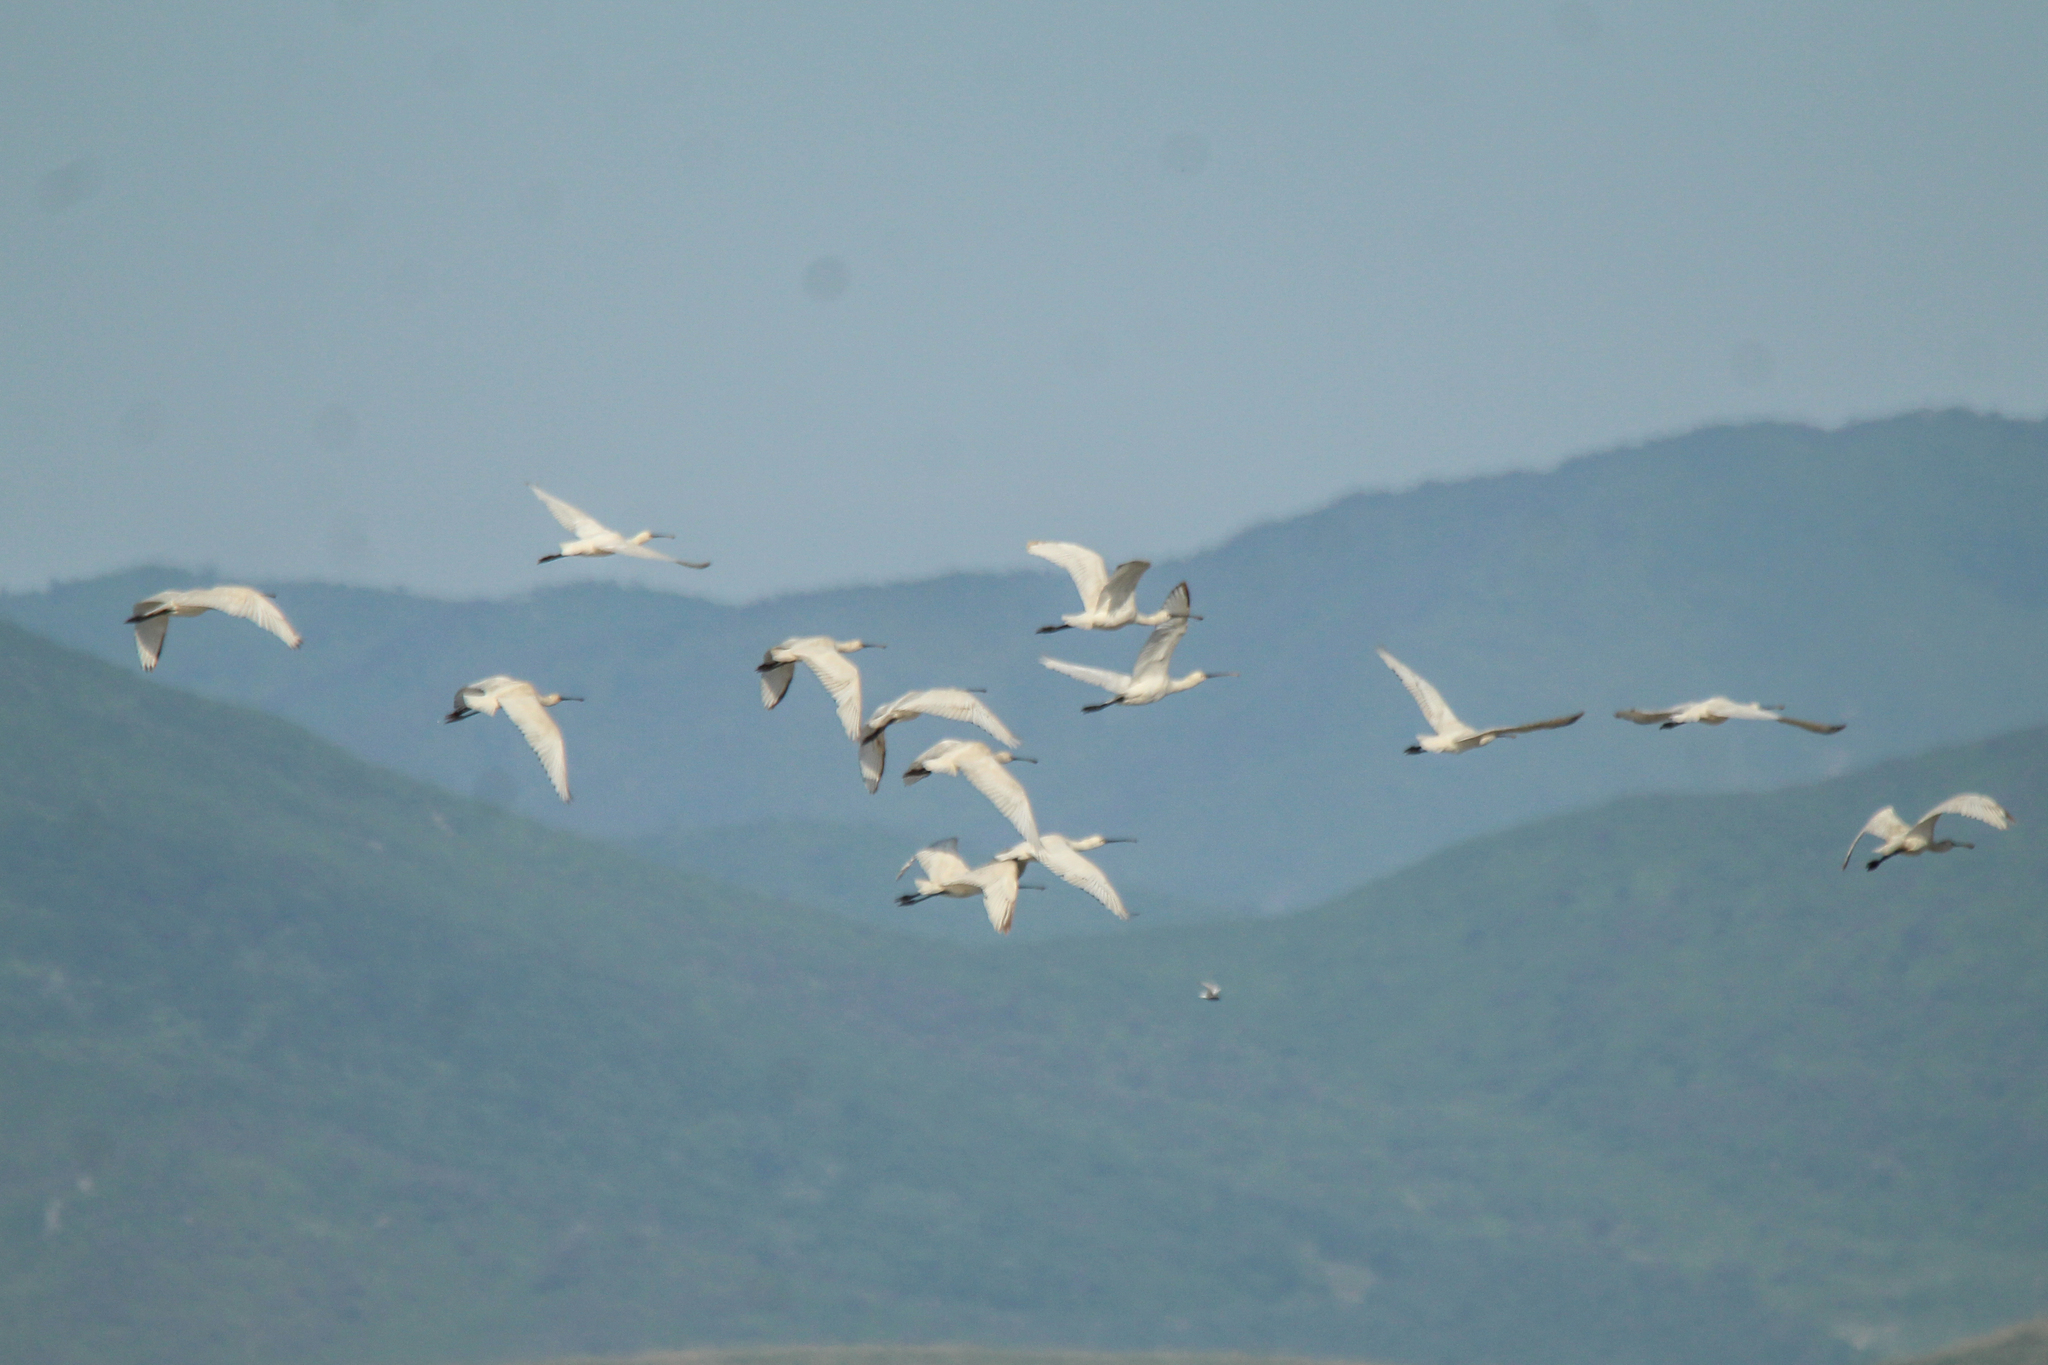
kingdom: Animalia
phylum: Chordata
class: Aves
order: Pelecaniformes
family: Threskiornithidae
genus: Platalea
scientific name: Platalea leucorodia
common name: Eurasian spoonbill
